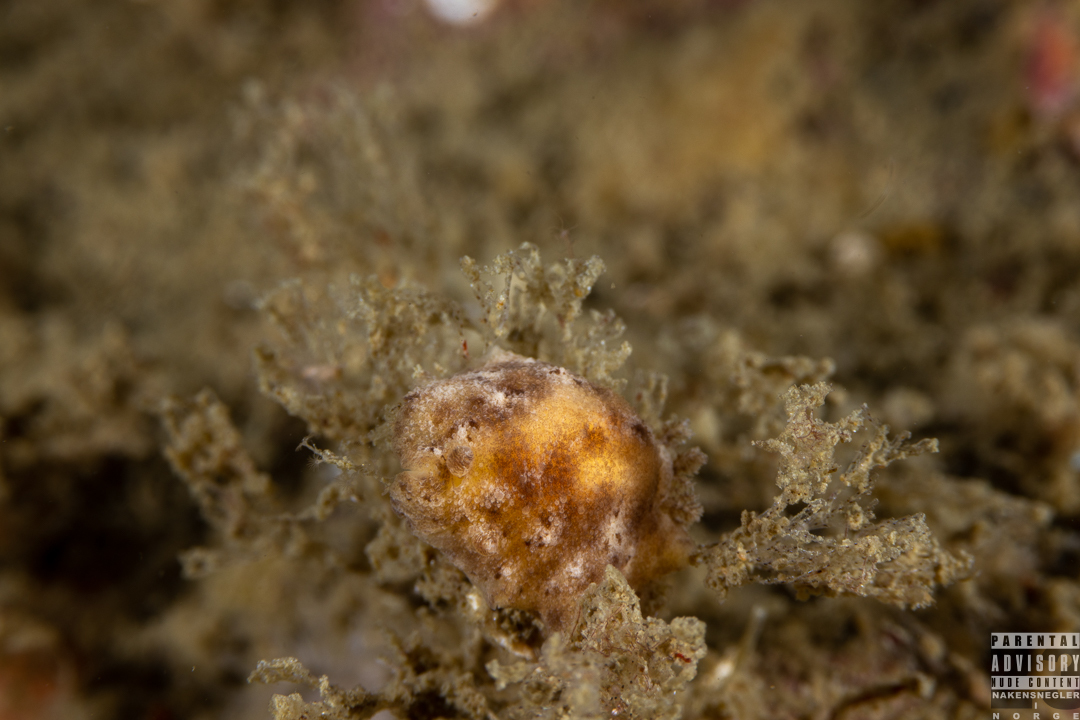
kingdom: Animalia
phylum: Mollusca
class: Gastropoda
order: Nudibranchia
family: Discodorididae
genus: Geitodoris
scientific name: Geitodoris planata
